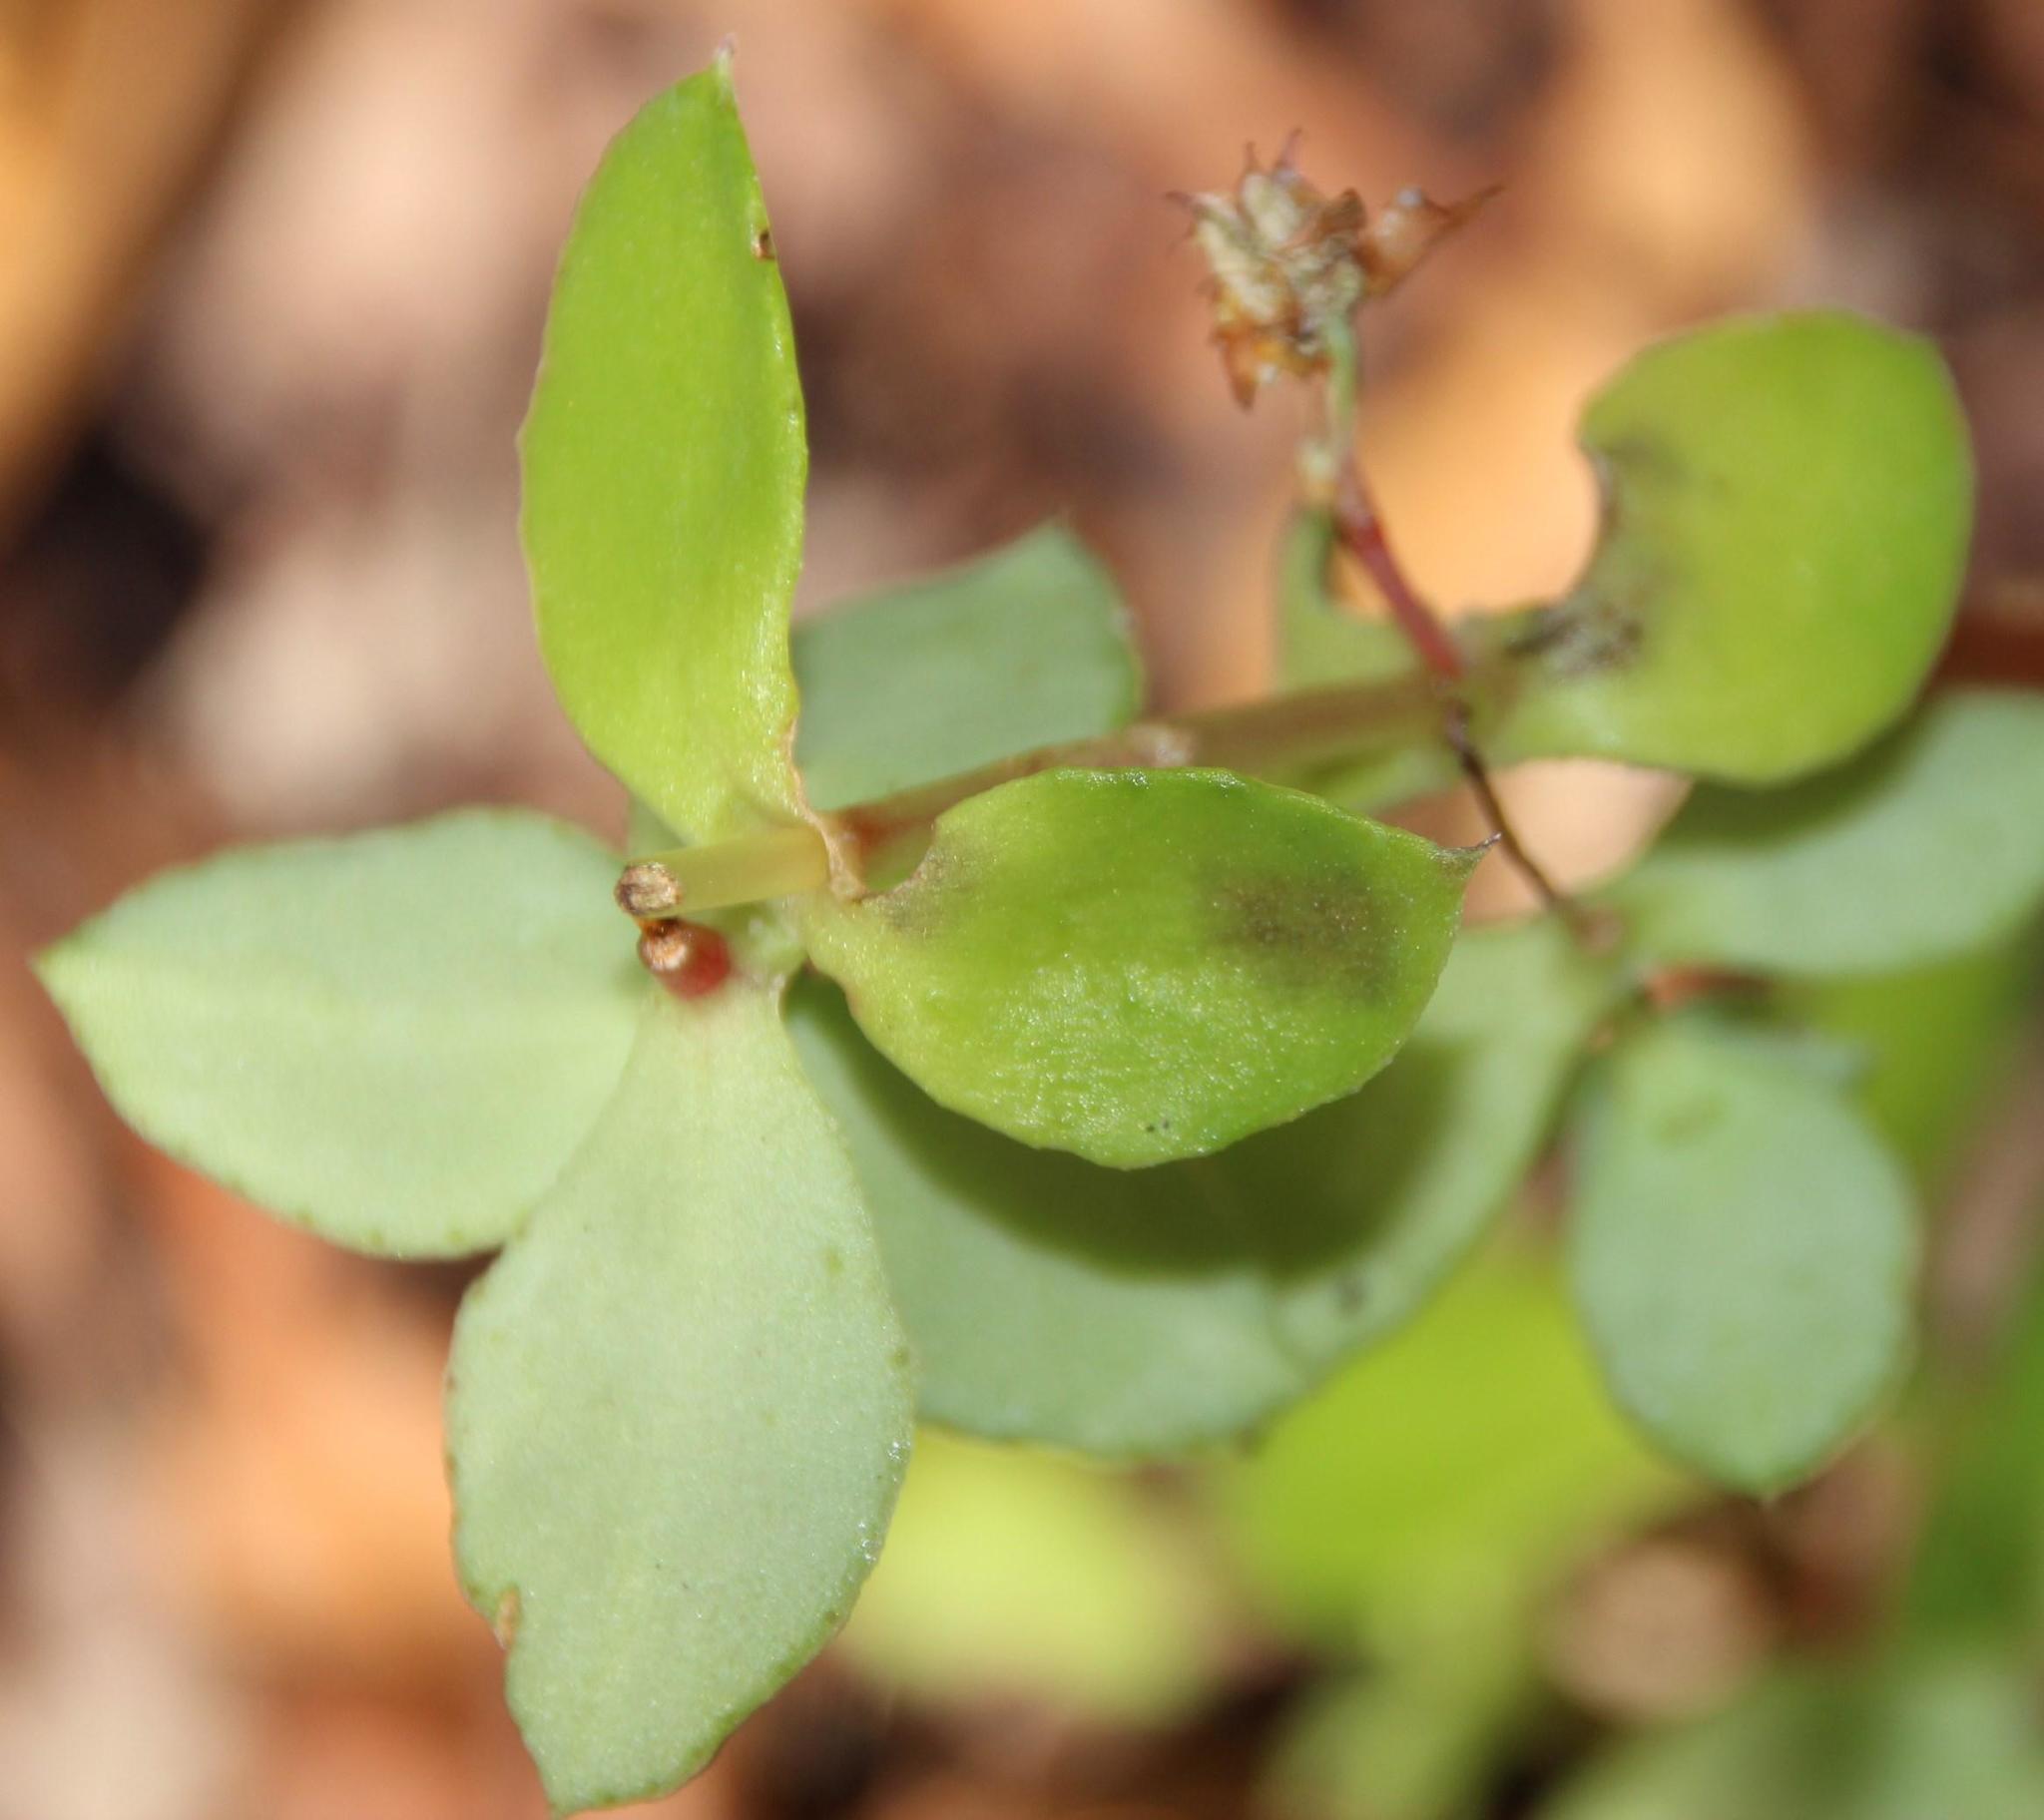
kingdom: Plantae
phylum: Tracheophyta
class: Magnoliopsida
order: Saxifragales
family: Crassulaceae
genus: Crassula
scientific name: Crassula pellucida
